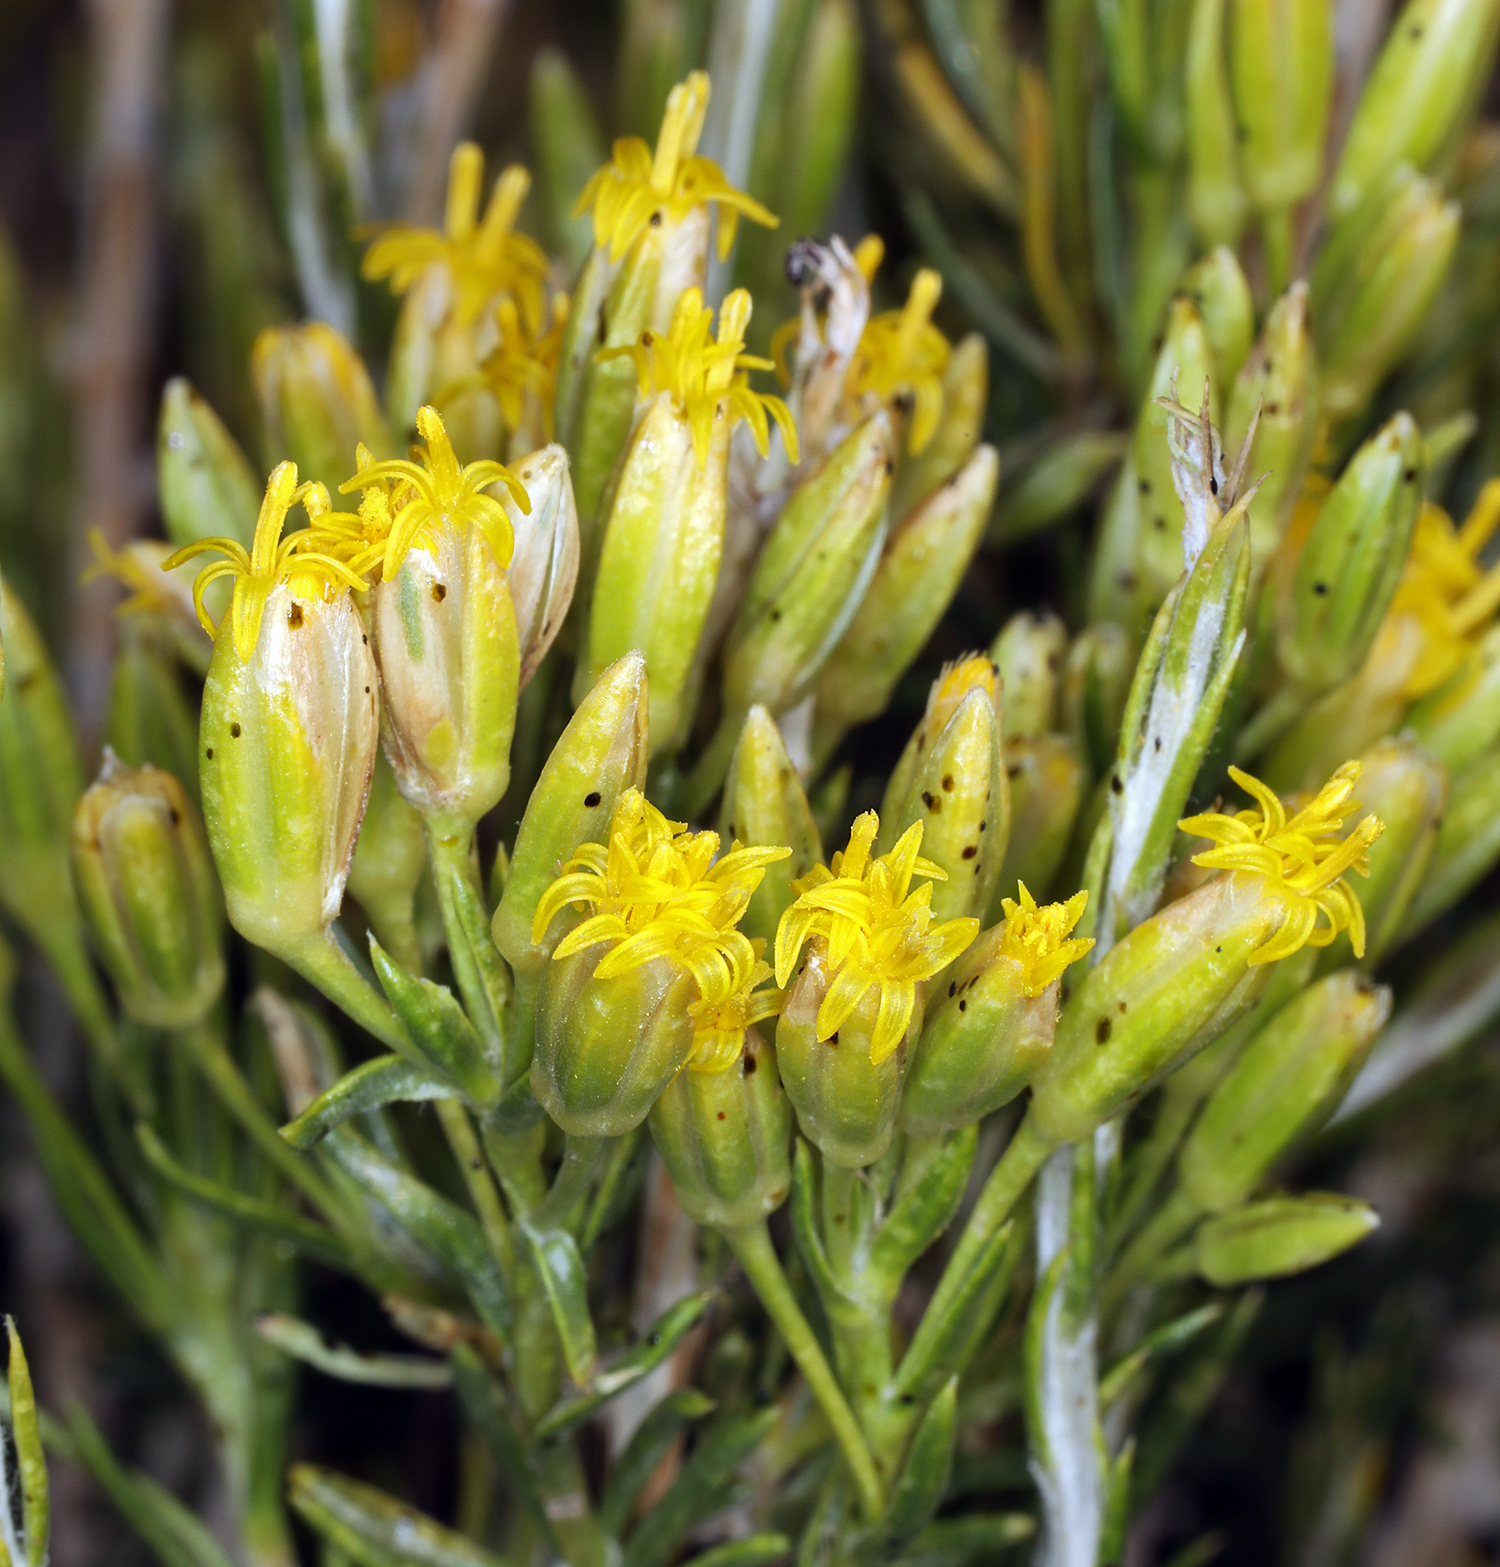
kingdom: Plantae
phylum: Tracheophyta
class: Magnoliopsida
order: Asterales
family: Asteraceae
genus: Tetradymia
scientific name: Tetradymia glabrata
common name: Smooth tetradymia
